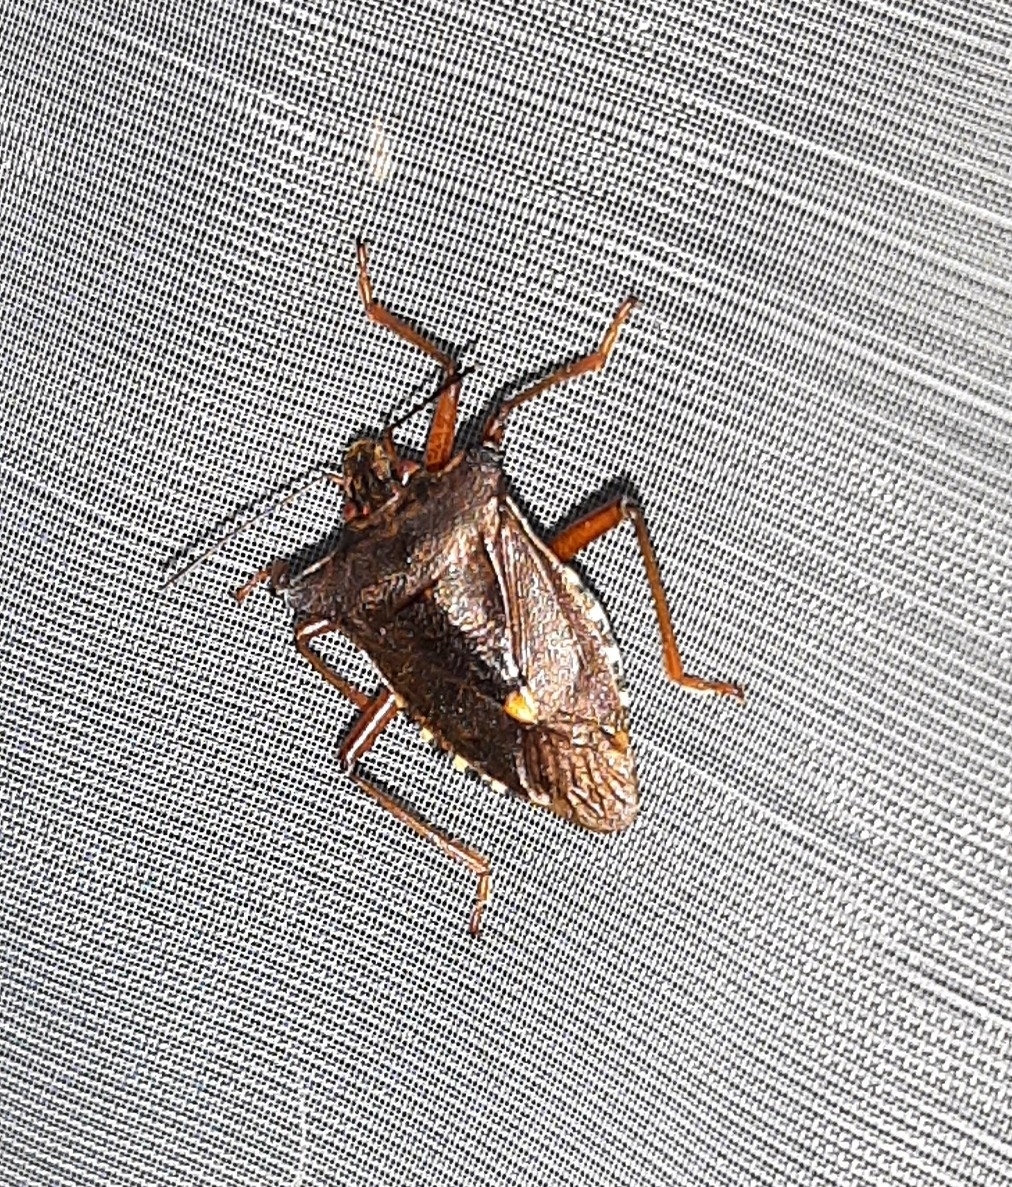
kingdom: Animalia
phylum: Arthropoda
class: Insecta
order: Hemiptera
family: Pentatomidae
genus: Pentatoma
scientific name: Pentatoma rufipes
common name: Forest bug
